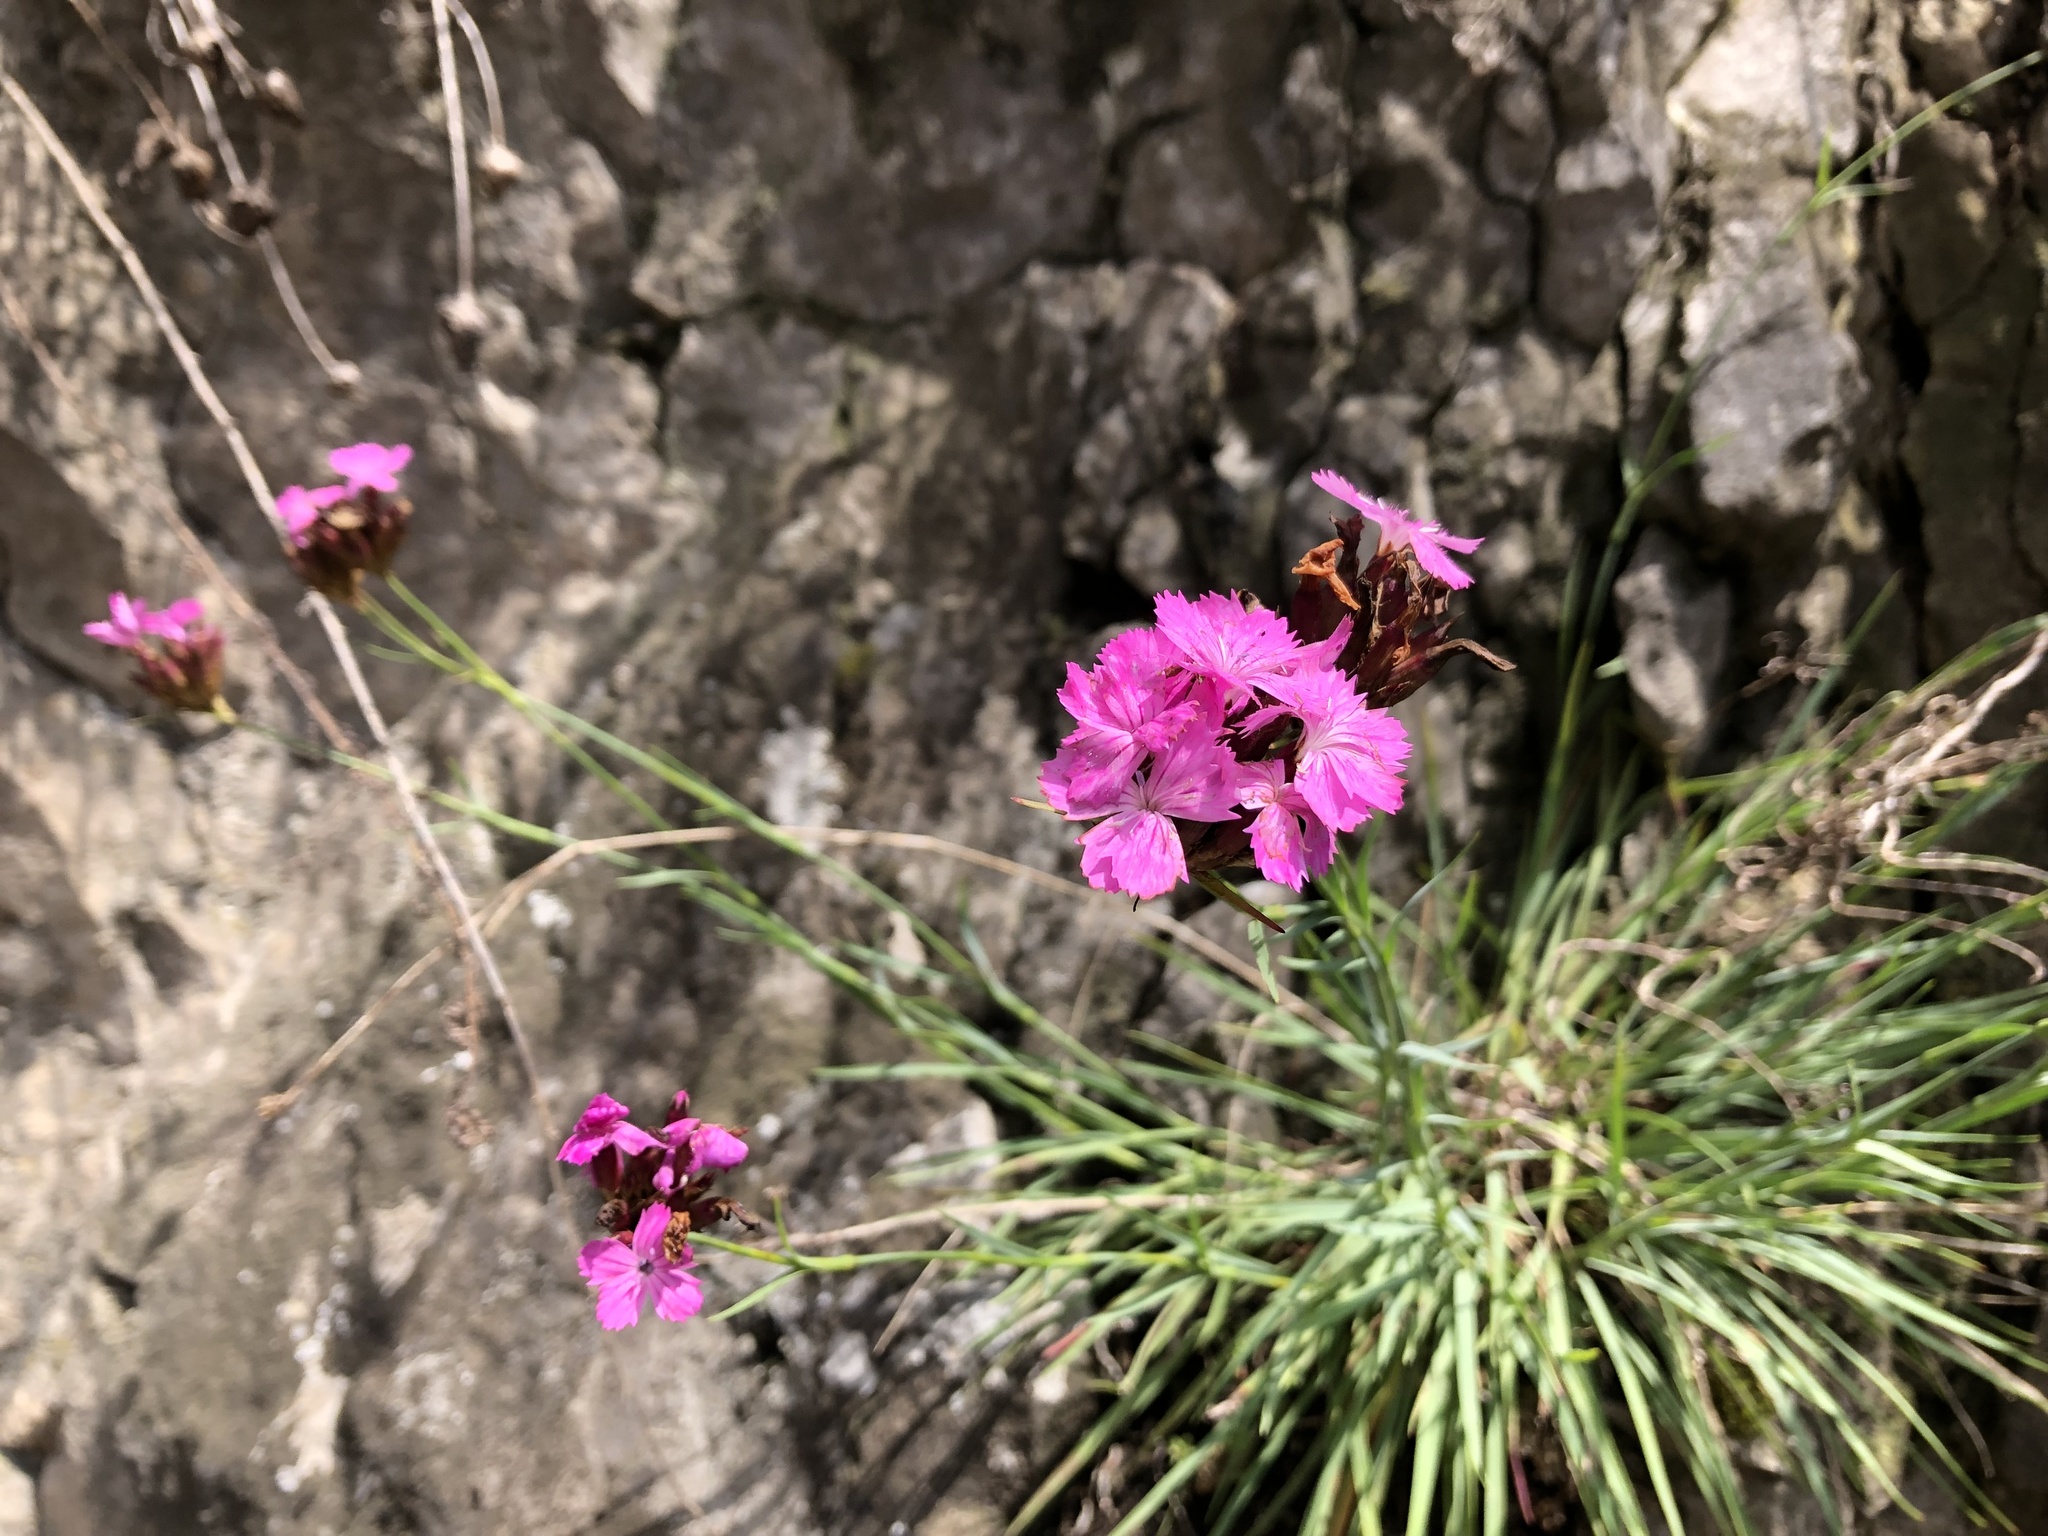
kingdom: Plantae
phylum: Tracheophyta
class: Magnoliopsida
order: Caryophyllales
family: Caryophyllaceae
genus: Dianthus
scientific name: Dianthus carthusianorum
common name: Carthusian pink
